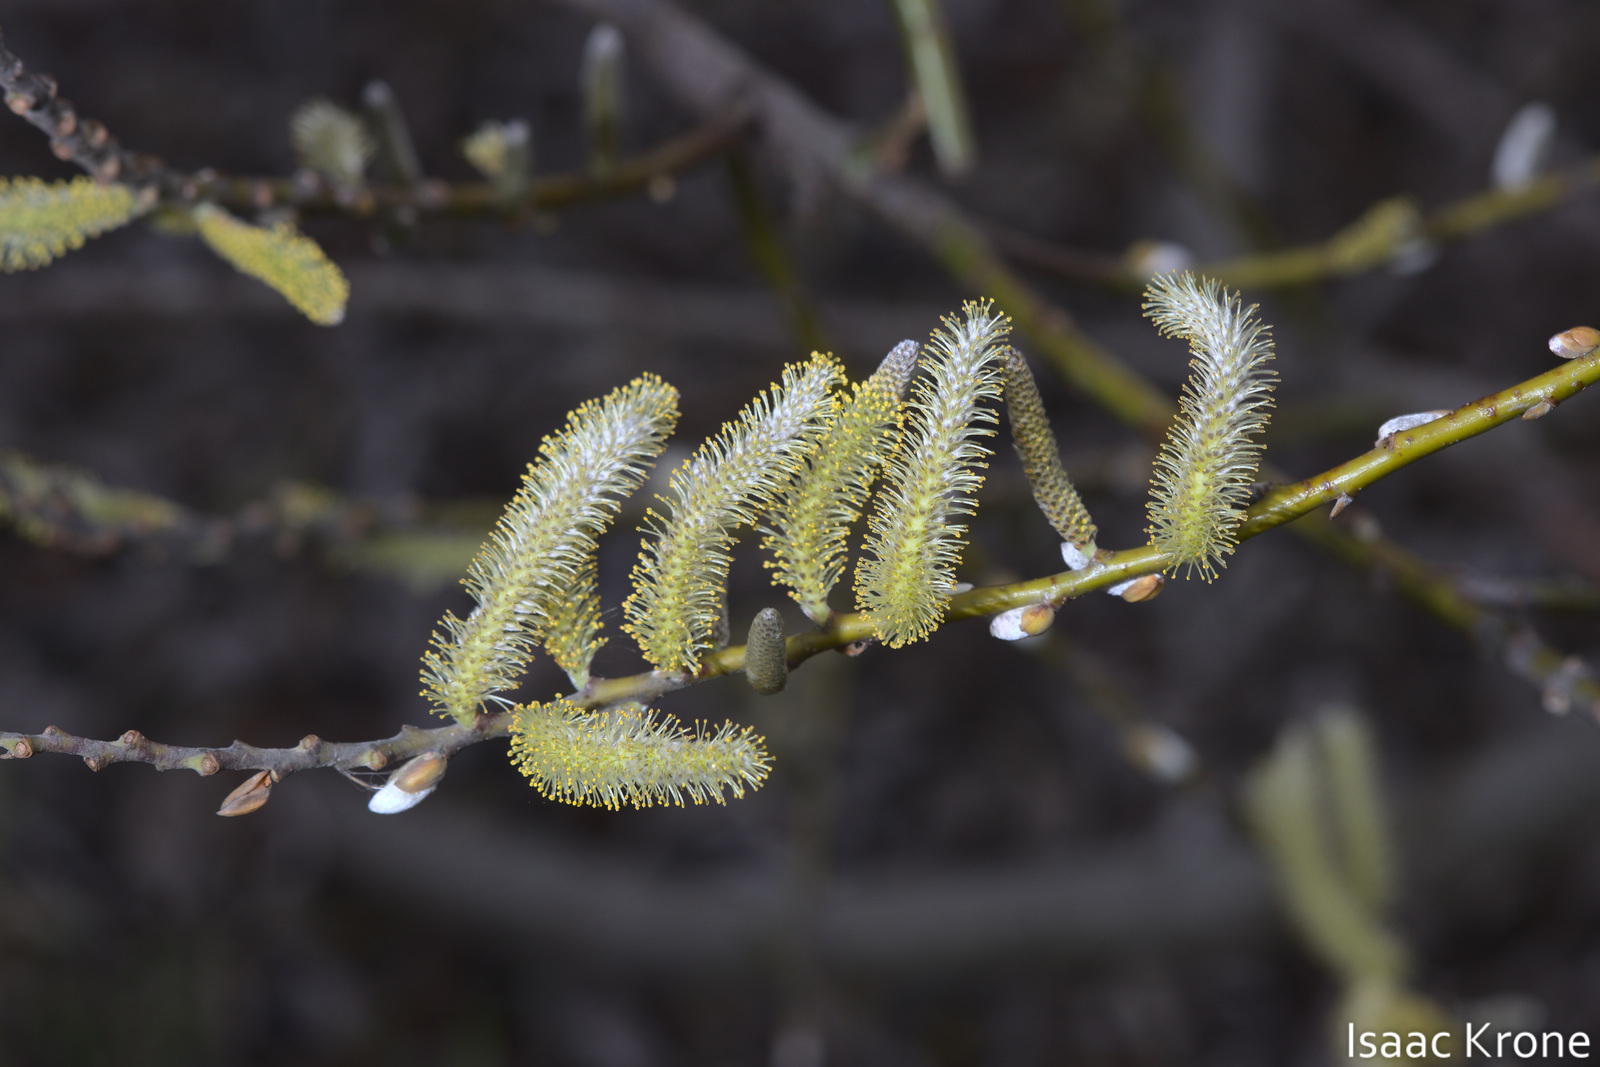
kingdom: Plantae
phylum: Tracheophyta
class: Magnoliopsida
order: Malpighiales
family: Salicaceae
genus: Salix
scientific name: Salix lasiolepis
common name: Arroyo willow
